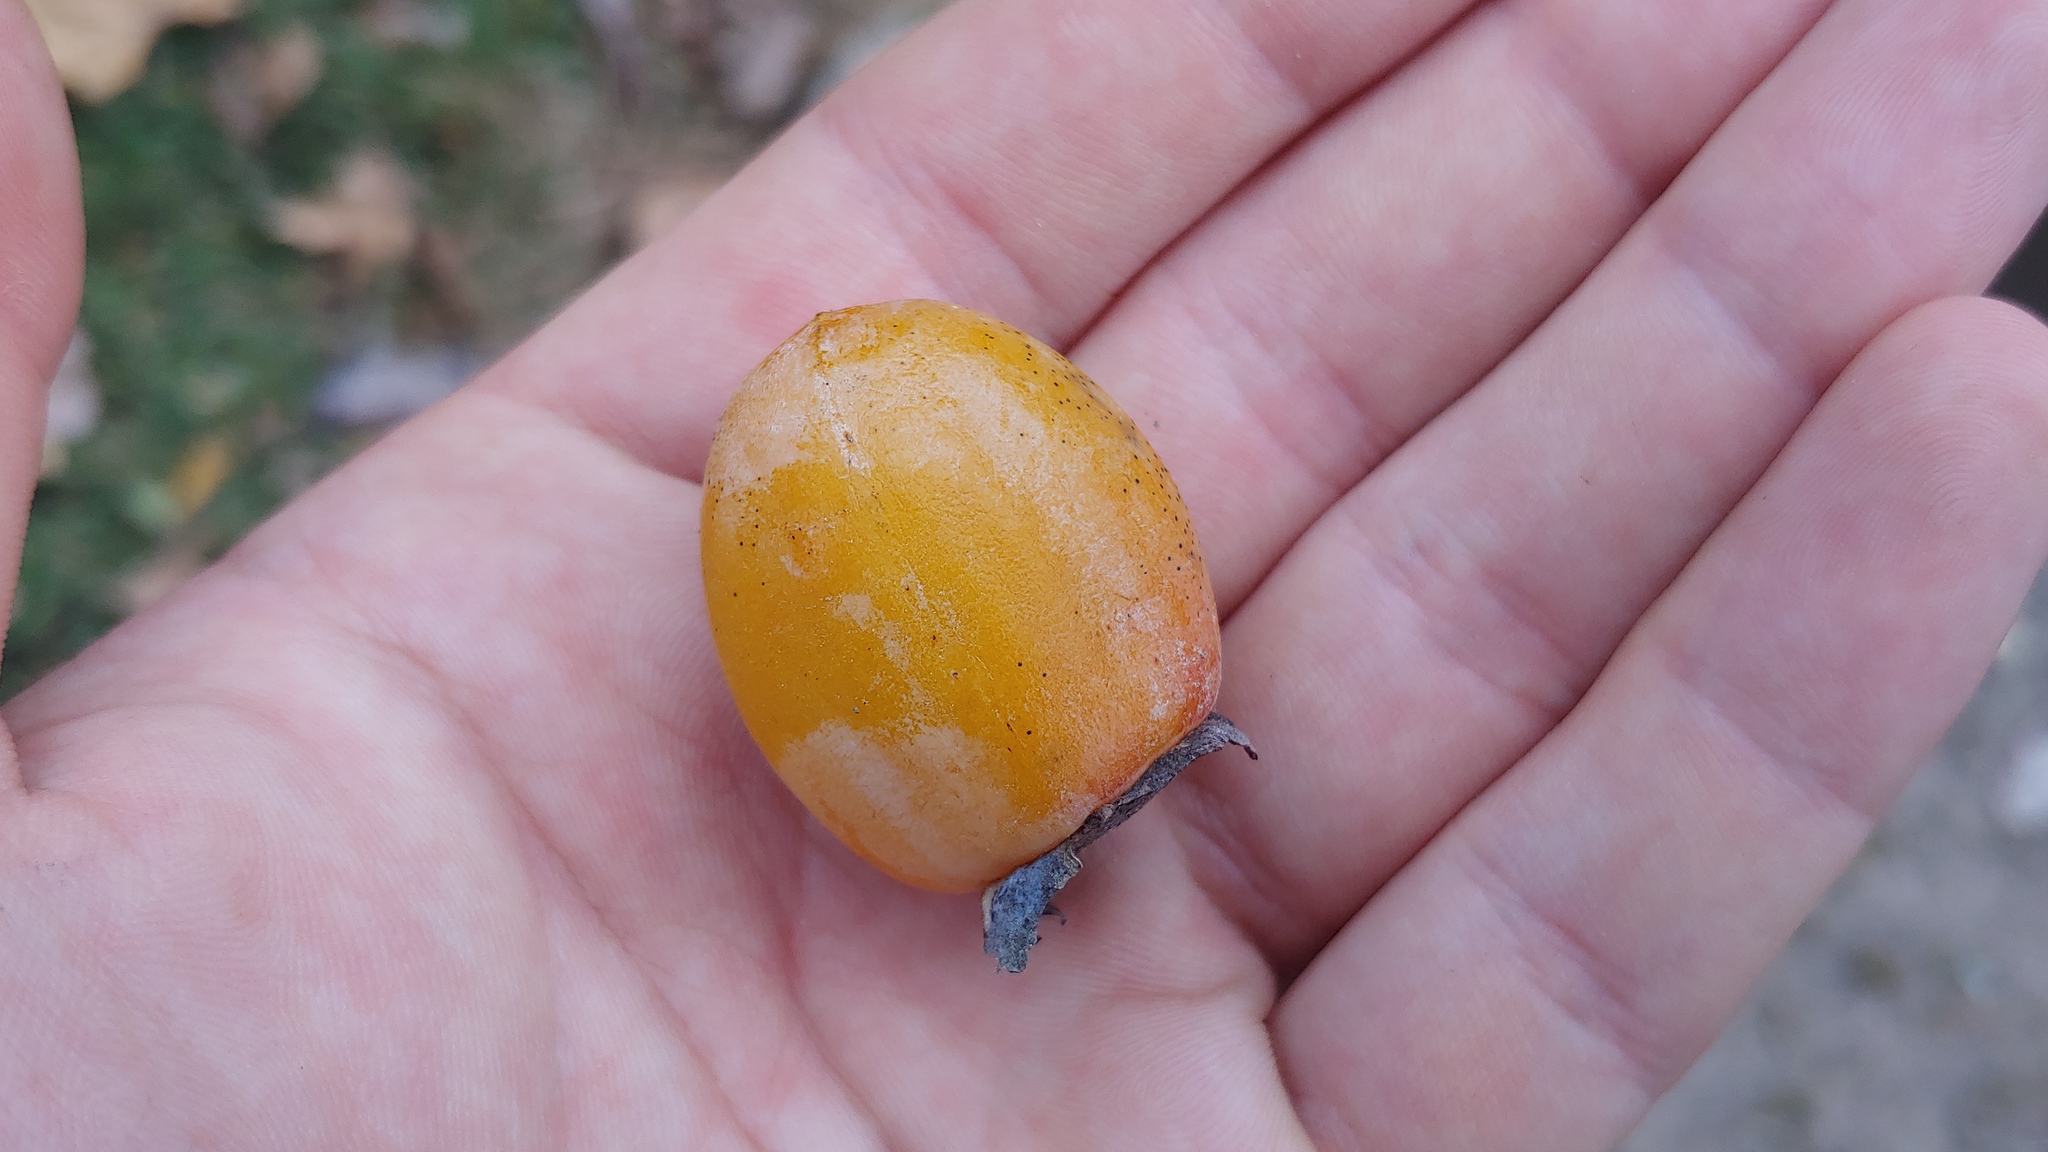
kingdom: Plantae
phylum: Tracheophyta
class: Magnoliopsida
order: Ericales
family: Ebenaceae
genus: Diospyros
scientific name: Diospyros virginiana
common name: Persimmon
